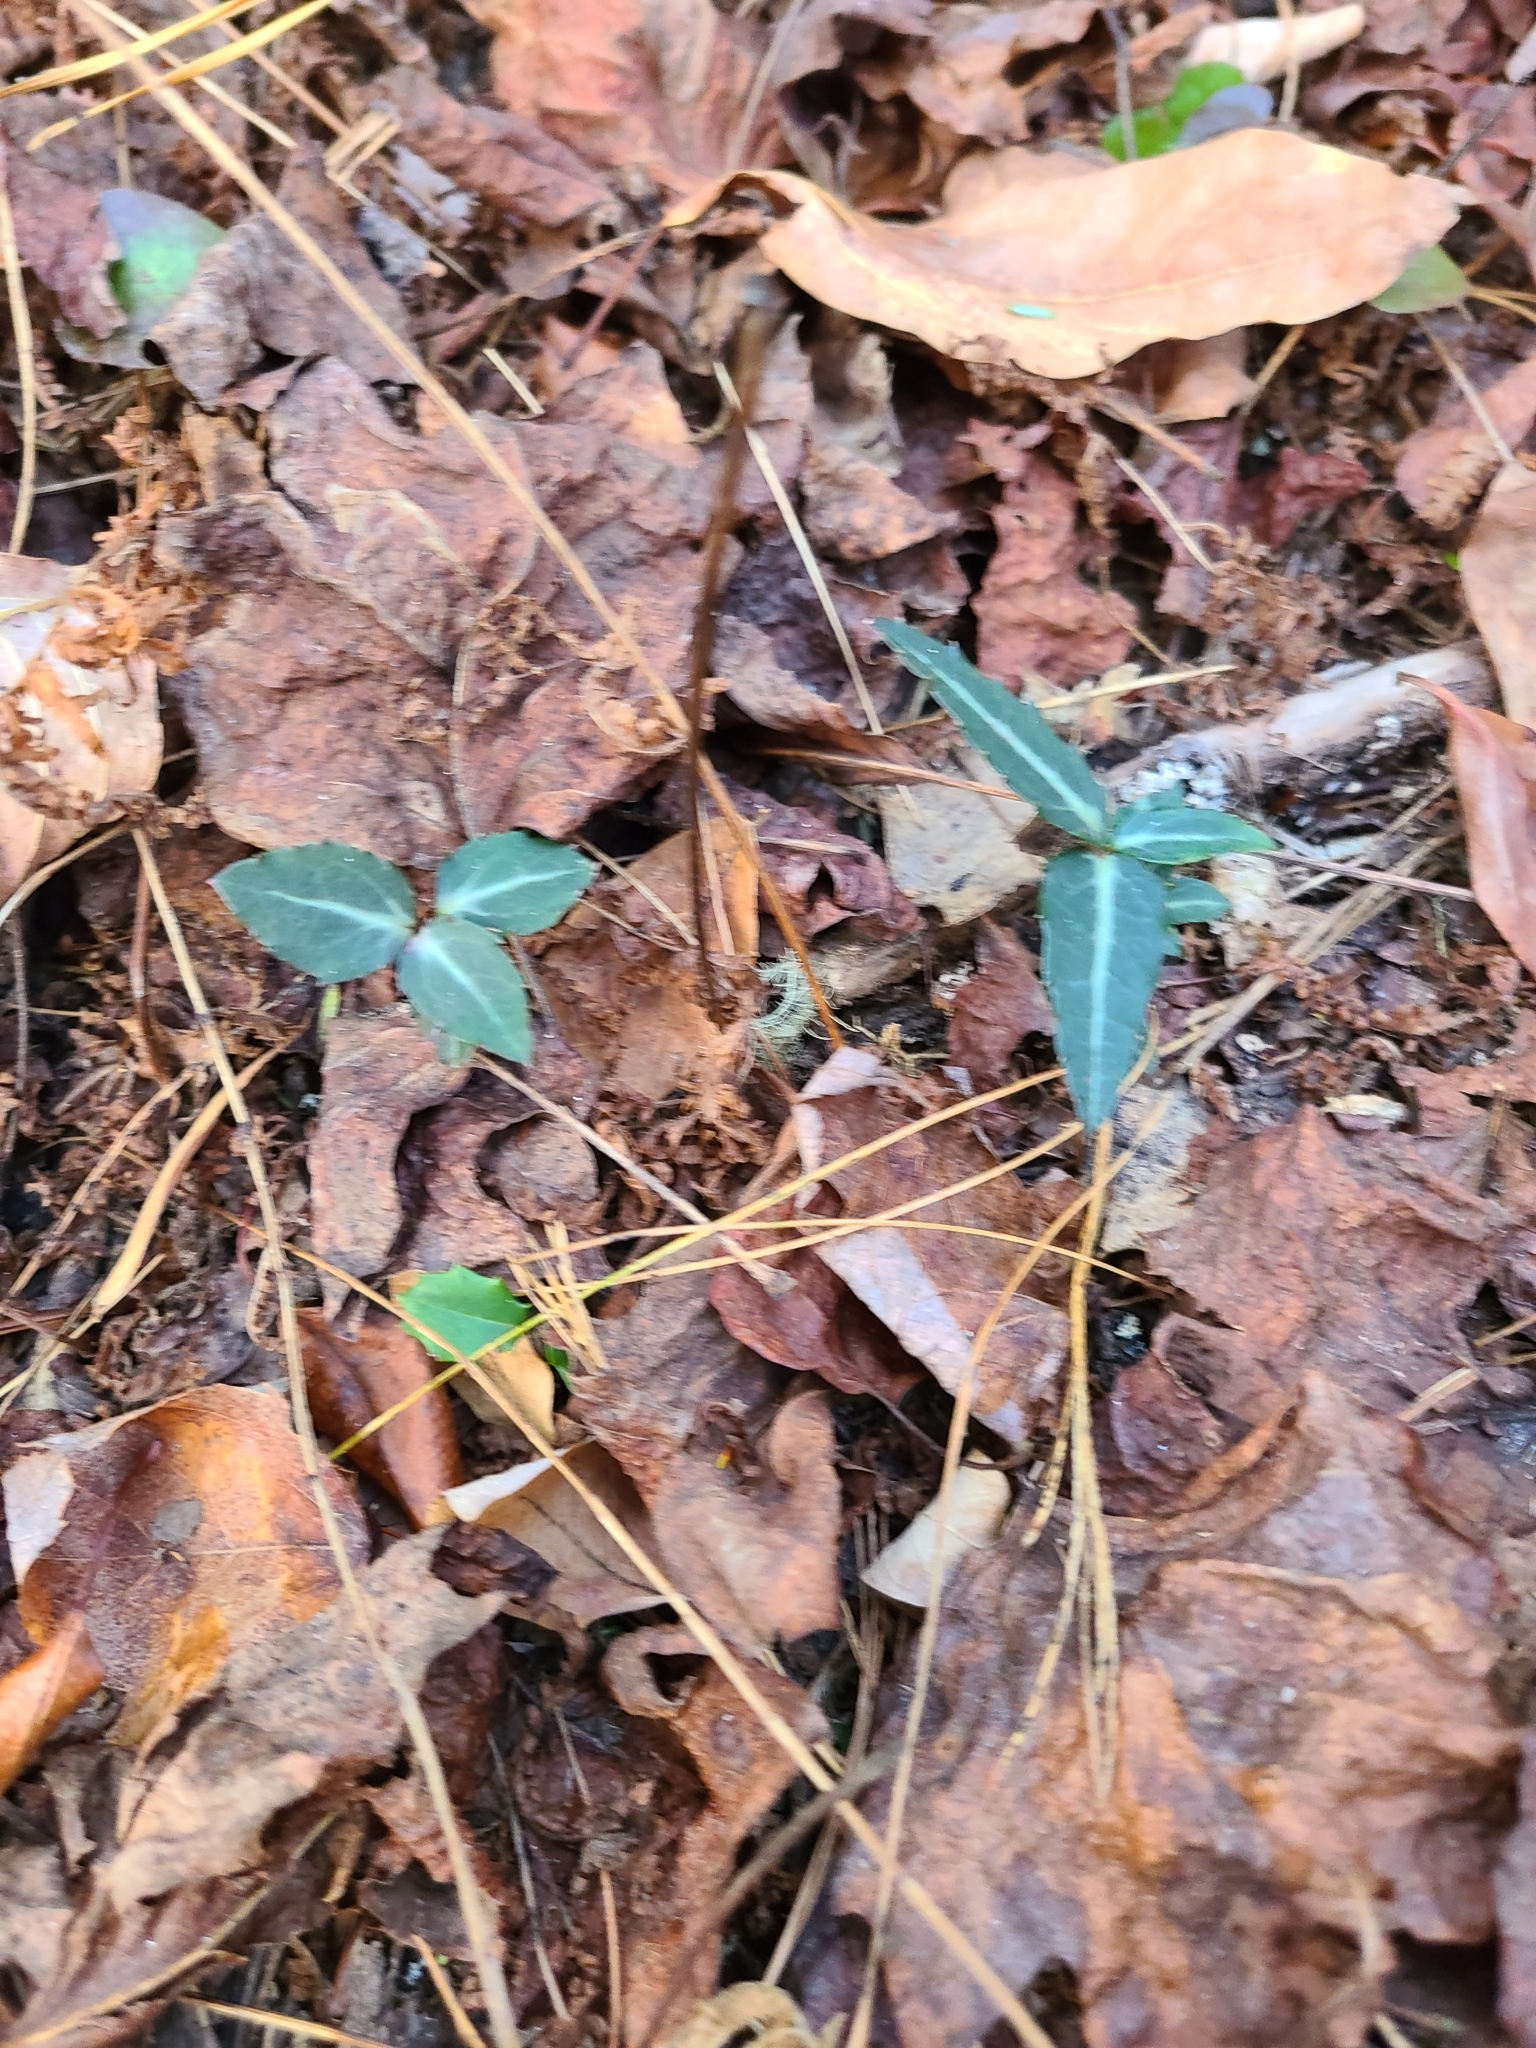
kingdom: Plantae
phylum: Tracheophyta
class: Magnoliopsida
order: Ericales
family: Ericaceae
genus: Chimaphila
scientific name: Chimaphila maculata
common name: Spotted pipsissewa
